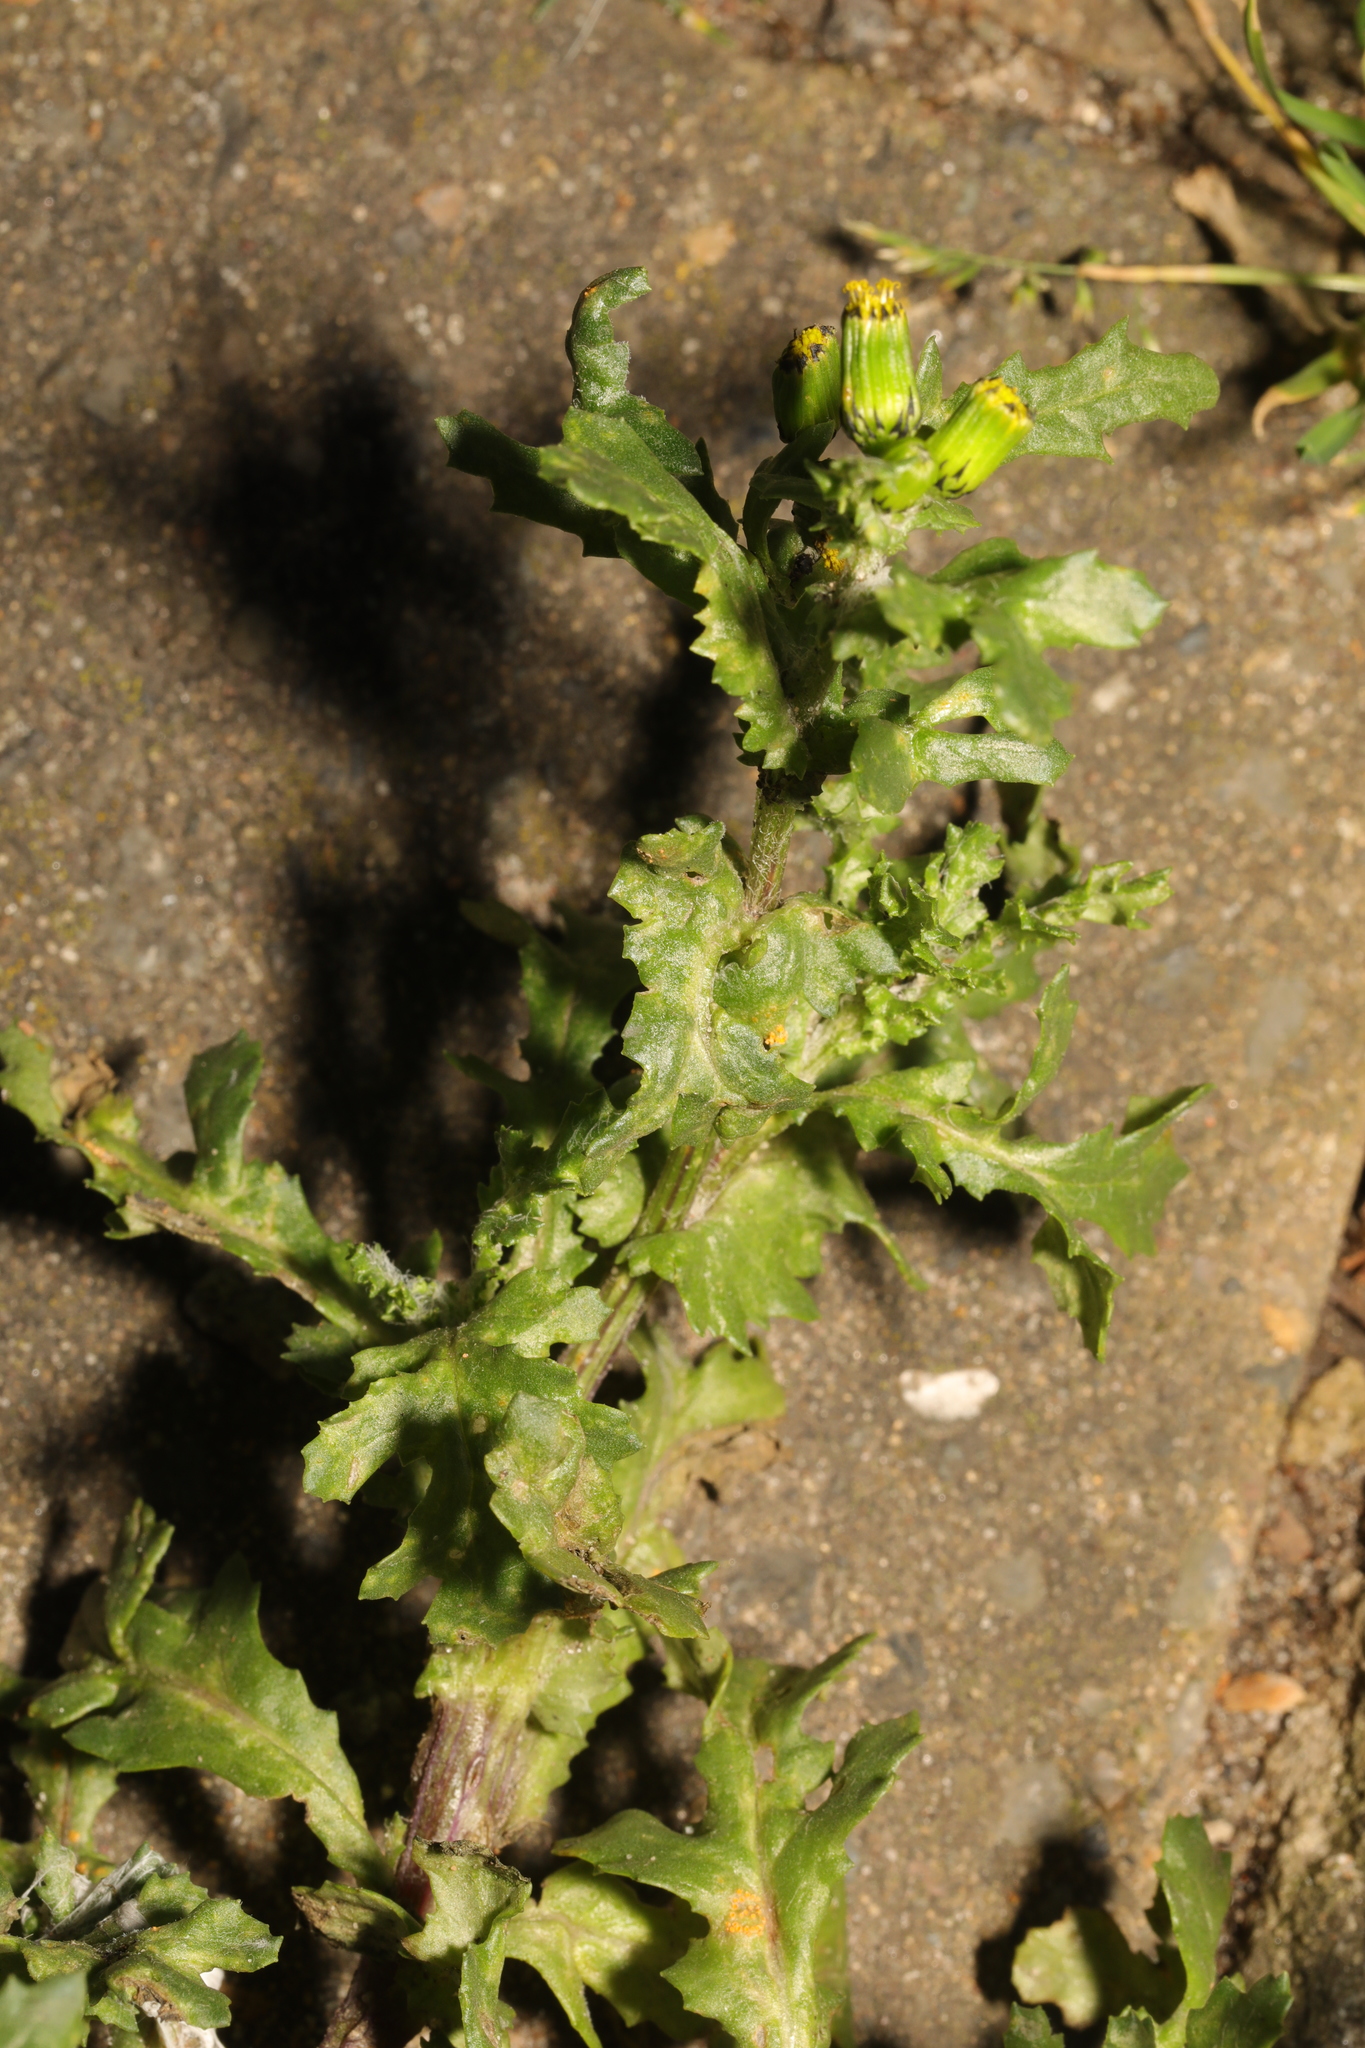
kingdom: Plantae
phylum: Tracheophyta
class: Magnoliopsida
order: Asterales
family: Asteraceae
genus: Senecio
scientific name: Senecio vulgaris
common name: Old-man-in-the-spring
